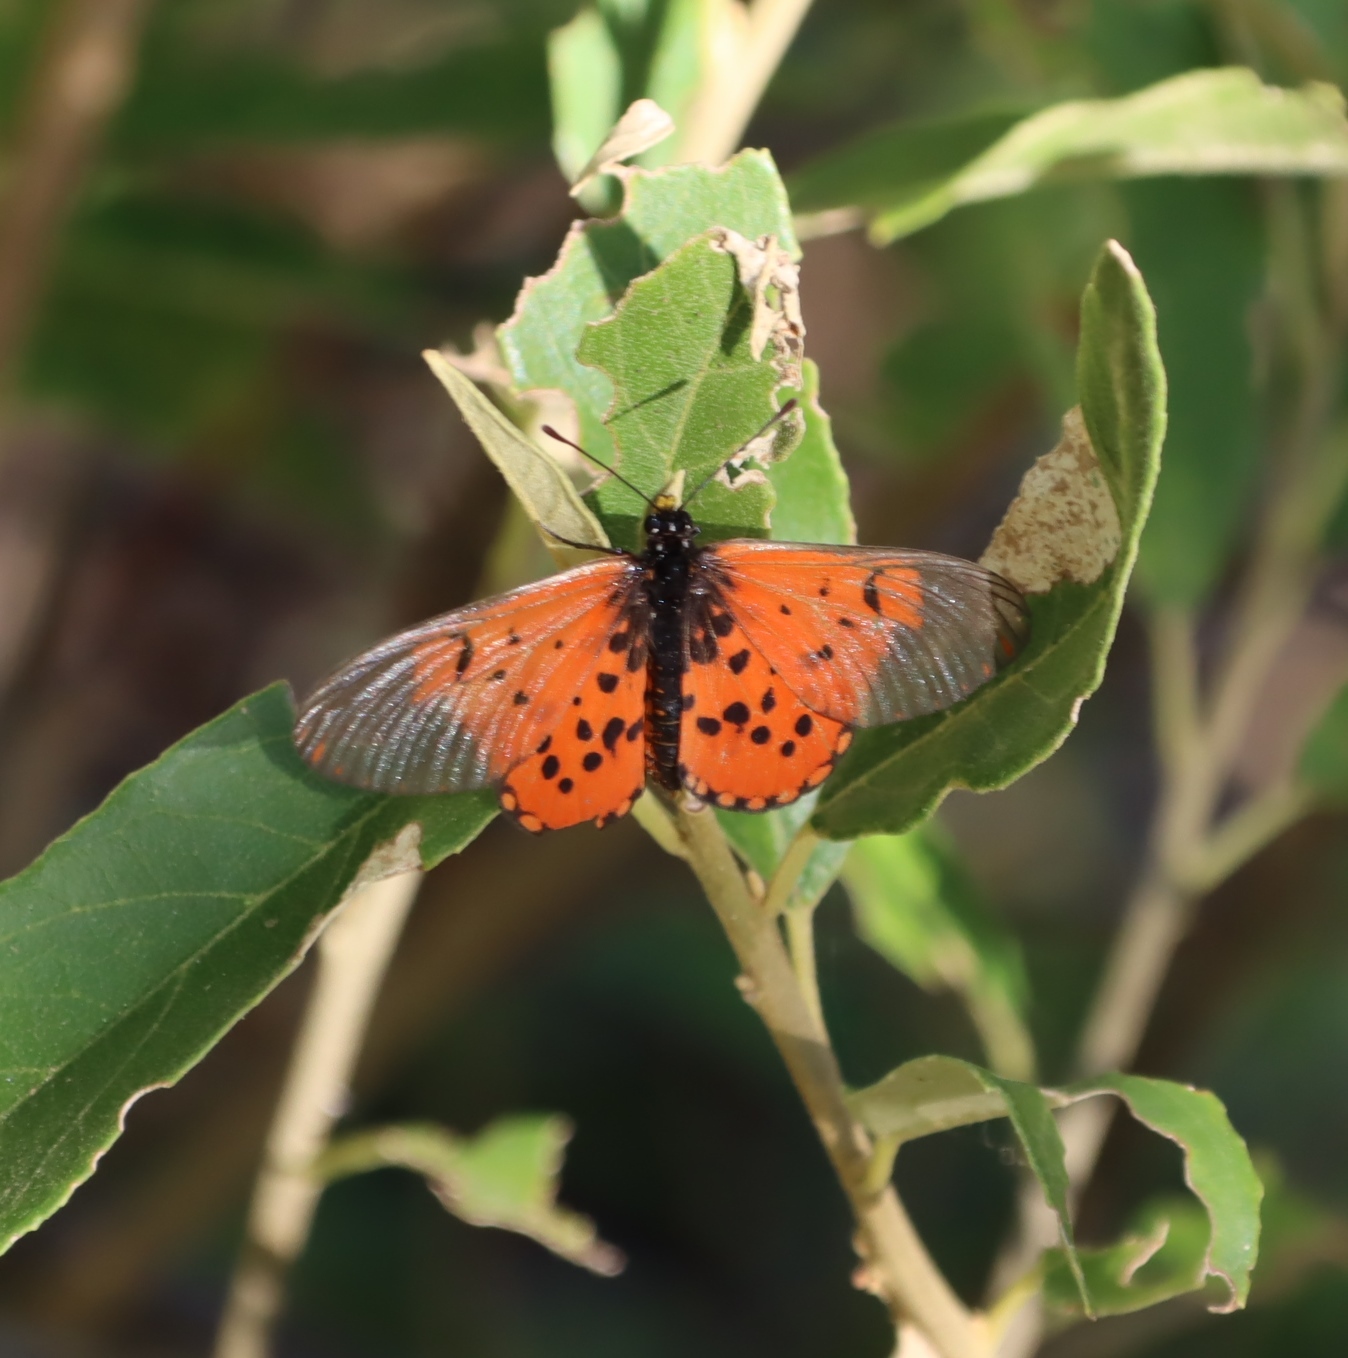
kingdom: Animalia
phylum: Arthropoda
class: Insecta
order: Lepidoptera
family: Nymphalidae
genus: Acraea
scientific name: Acraea horta
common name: Garden acraea
